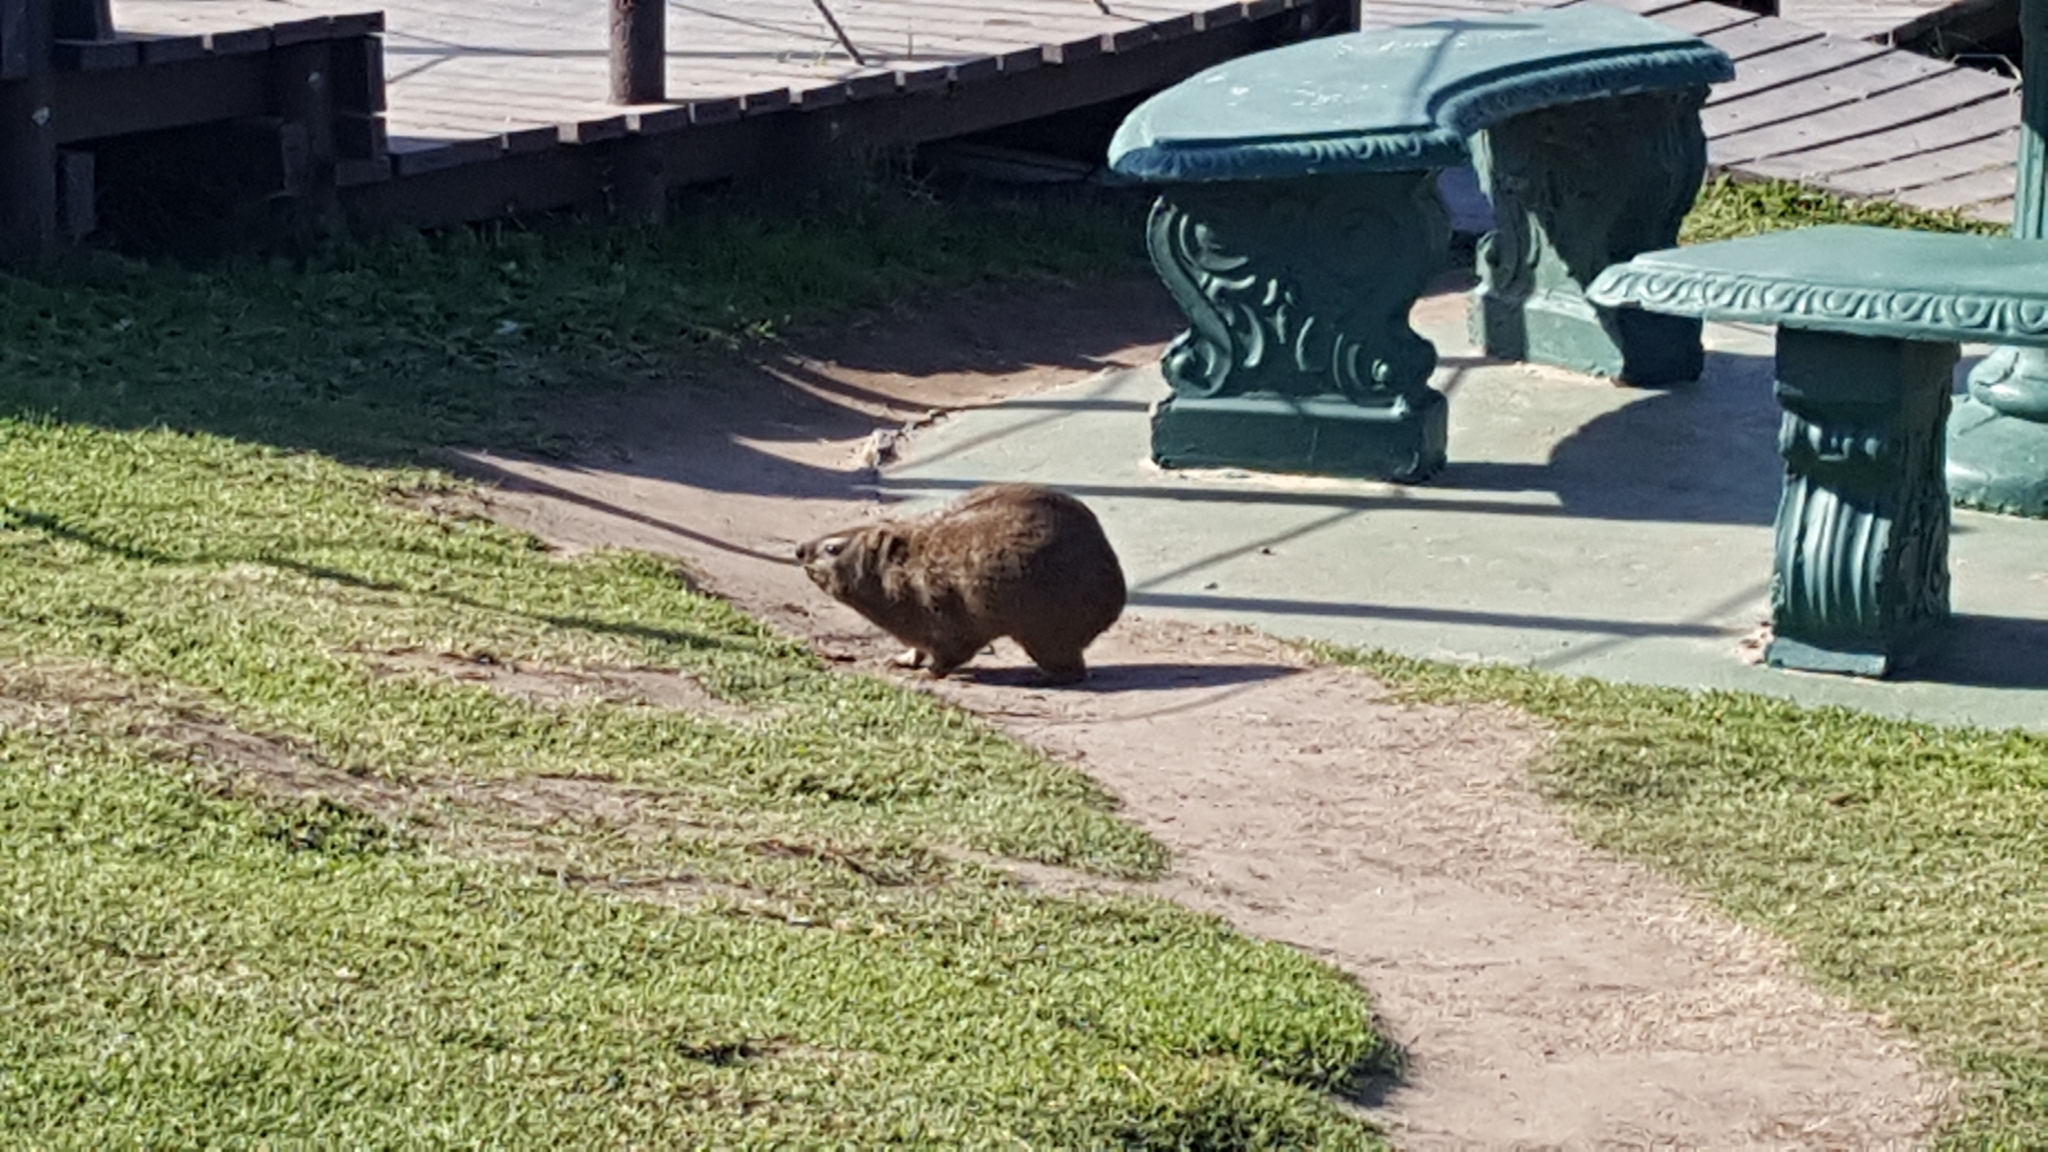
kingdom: Animalia
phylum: Chordata
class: Mammalia
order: Hyracoidea
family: Procaviidae
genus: Procavia
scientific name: Procavia capensis
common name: Rock hyrax
